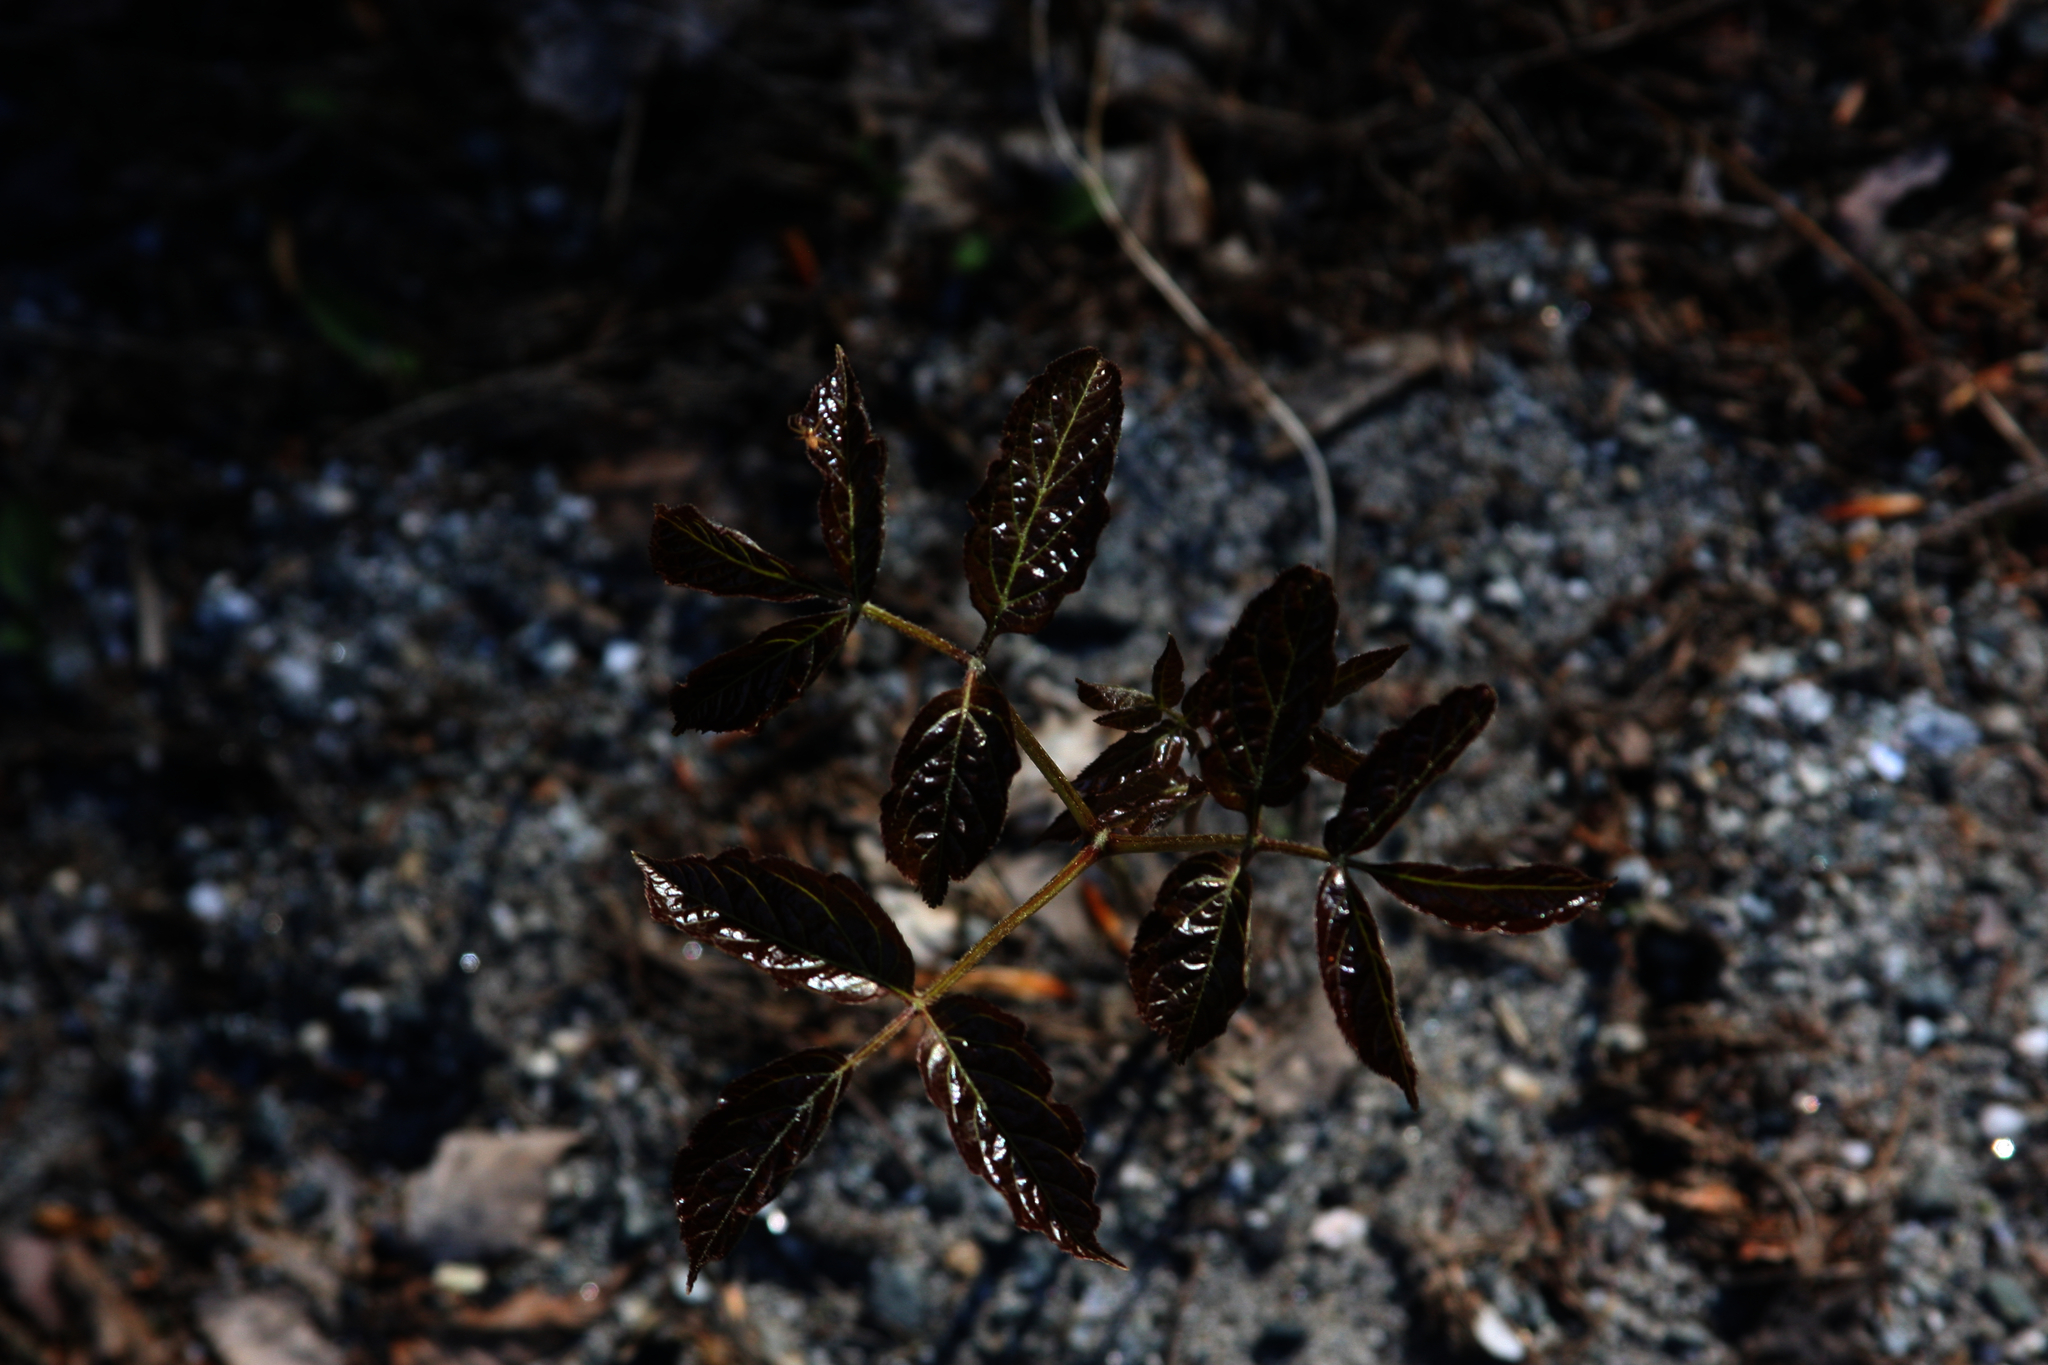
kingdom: Plantae
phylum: Tracheophyta
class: Magnoliopsida
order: Apiales
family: Araliaceae
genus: Aralia
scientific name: Aralia nudicaulis
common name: Wild sarsaparilla
